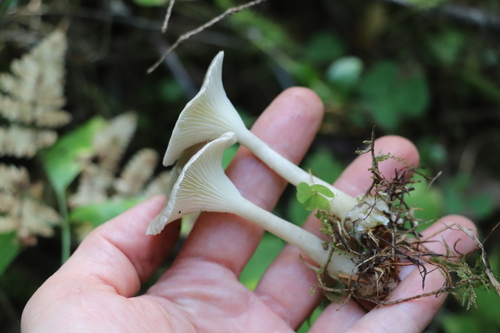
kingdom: Fungi
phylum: Basidiomycota
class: Agaricomycetes
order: Agaricales
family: Hygrophoraceae
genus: Ampulloclitocybe
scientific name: Ampulloclitocybe clavipes
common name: Club foot
